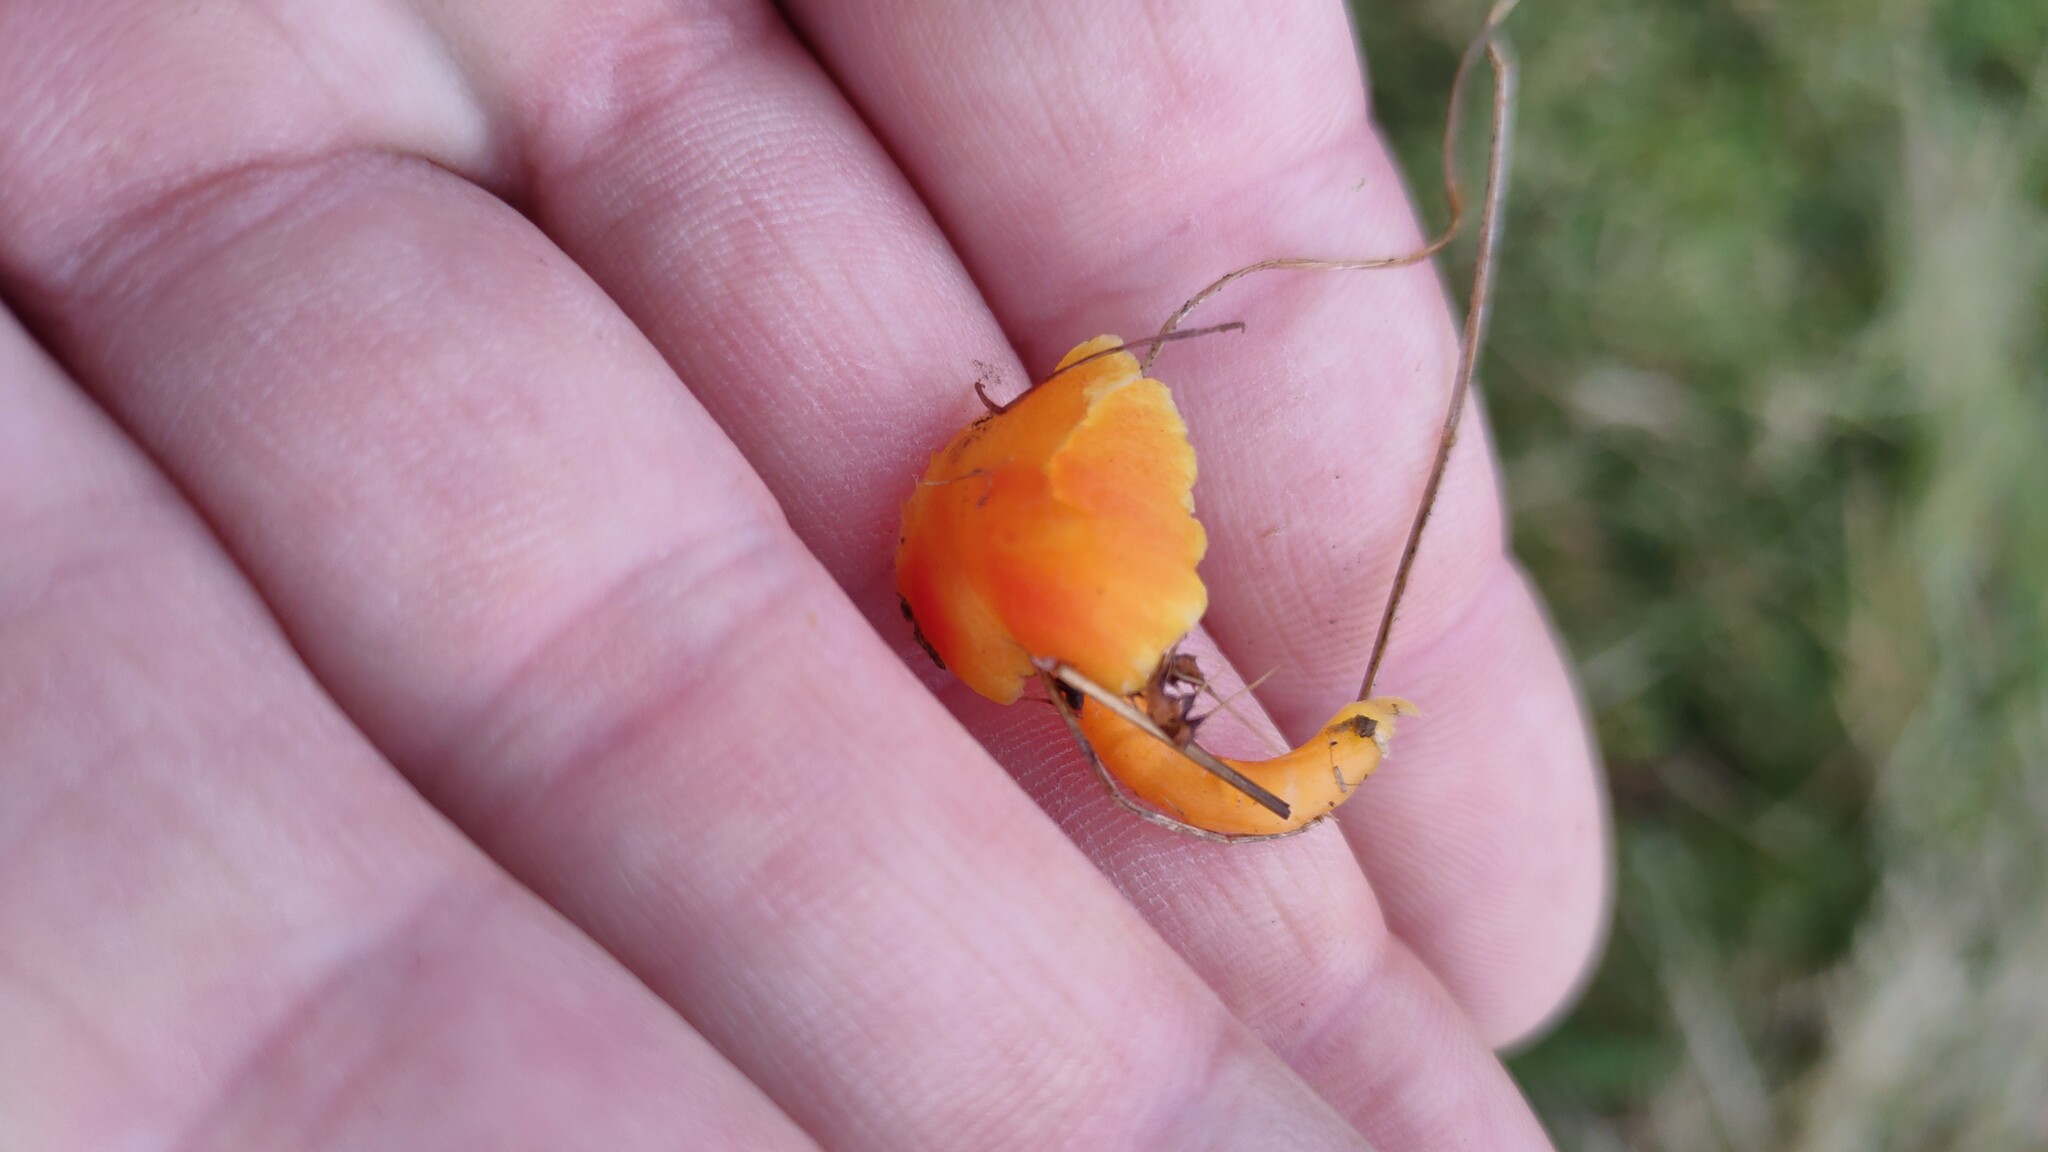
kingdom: Fungi
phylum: Basidiomycota
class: Agaricomycetes
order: Agaricales
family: Hygrophoraceae
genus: Hygrocybe
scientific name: Hygrocybe insipida
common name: Spangle waxcap
